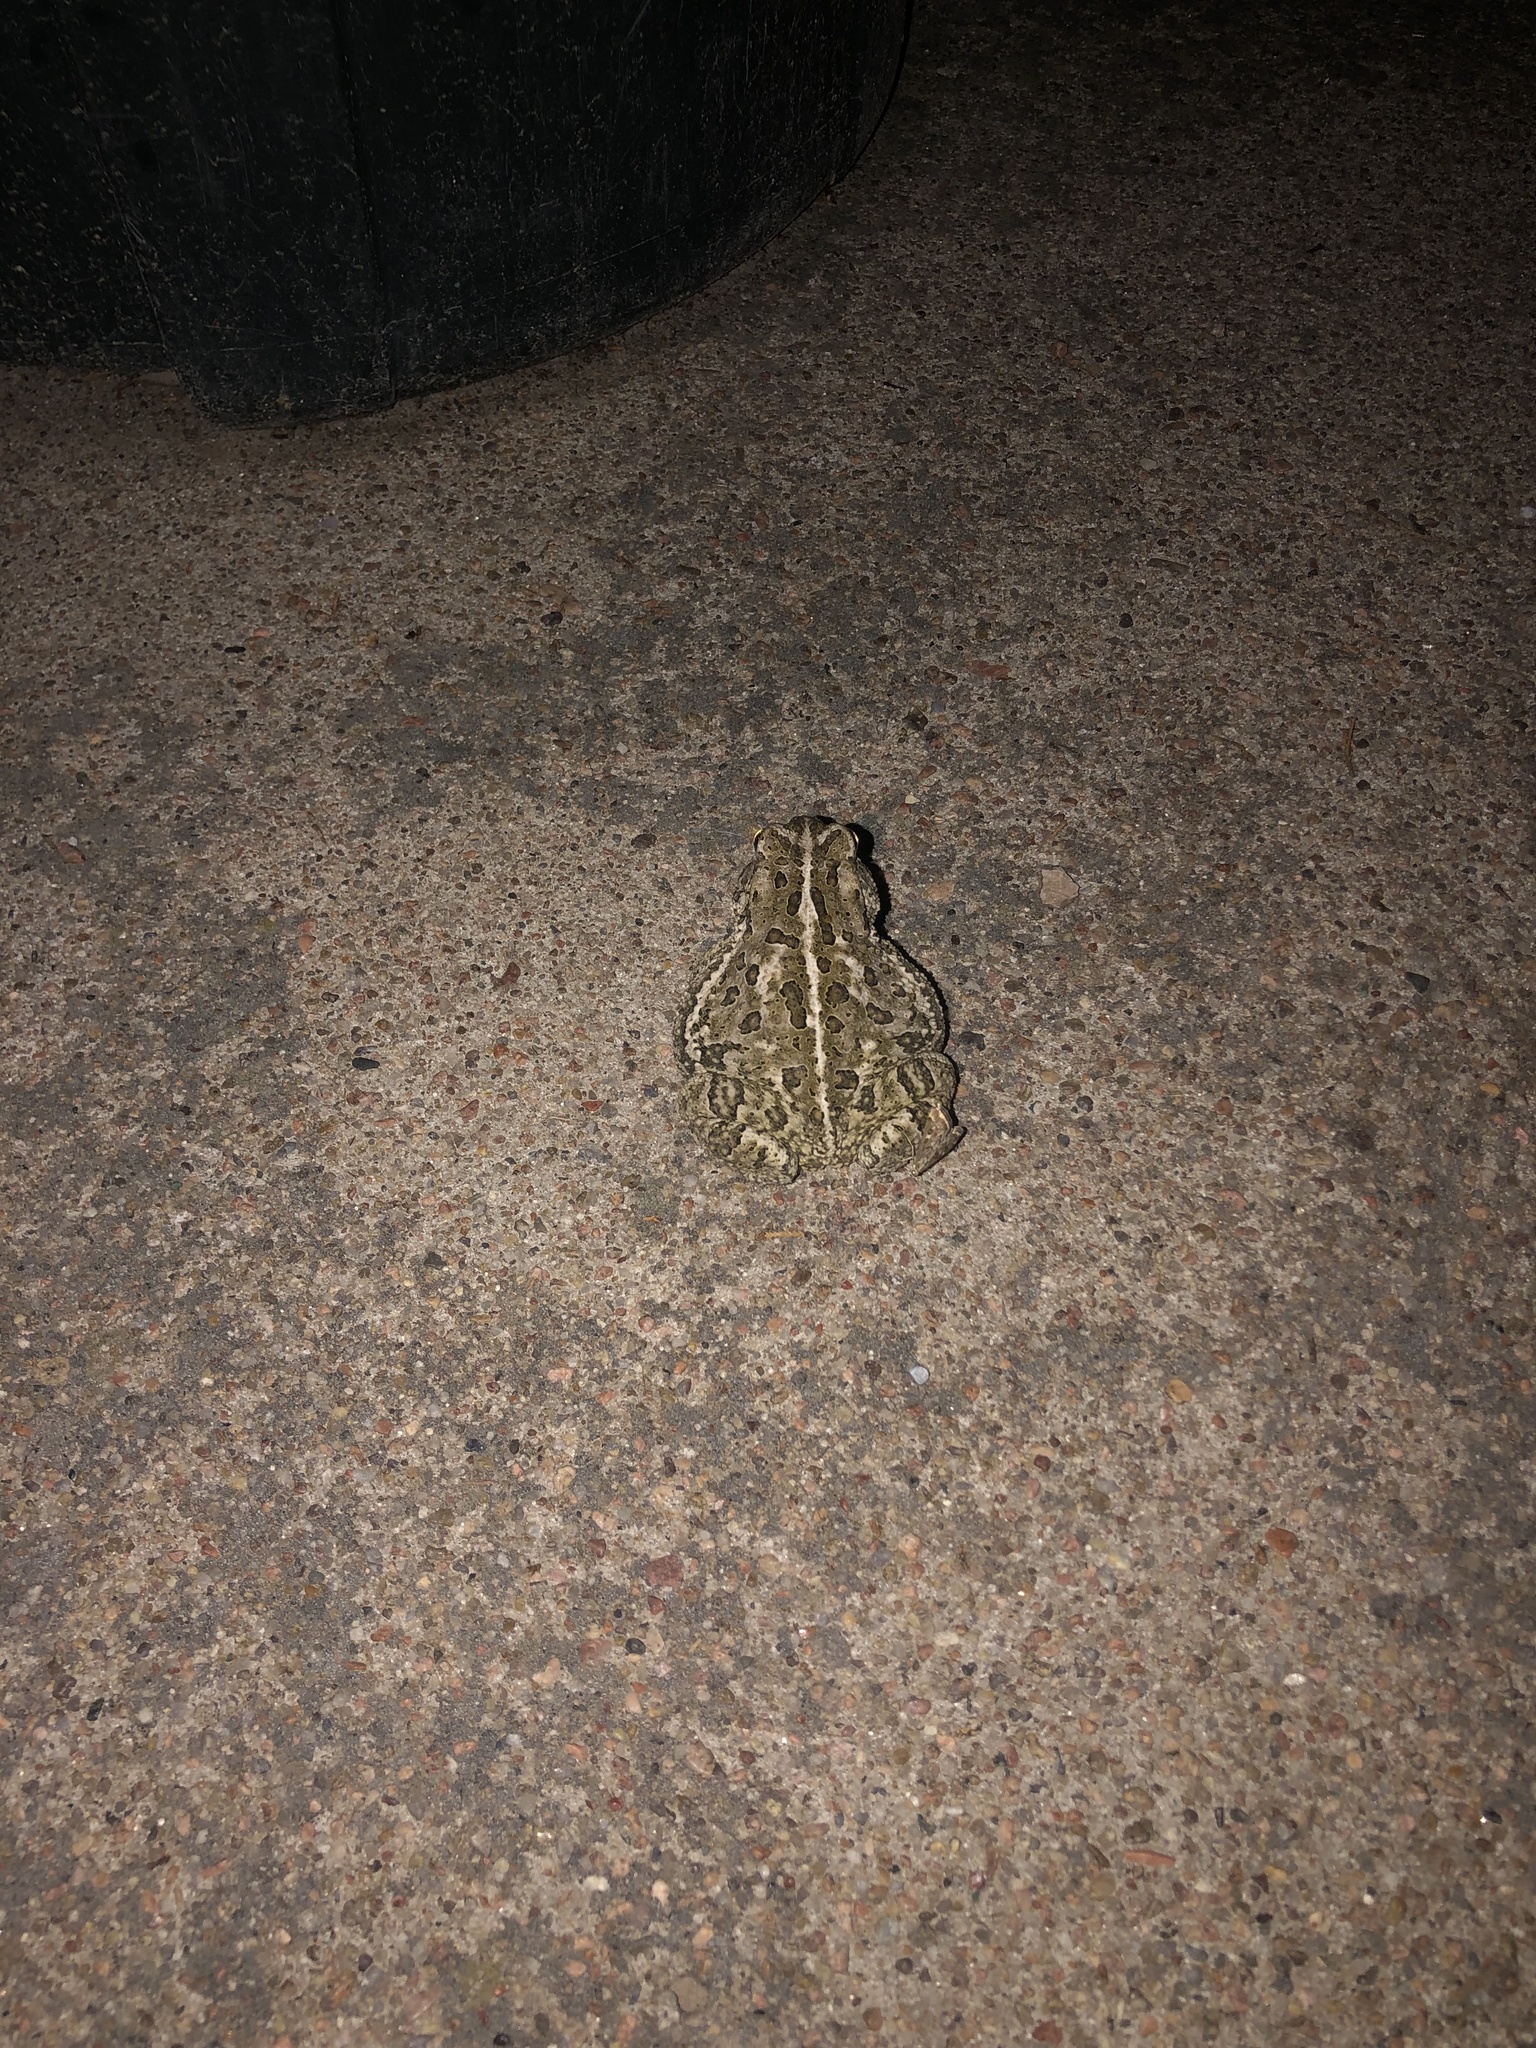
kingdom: Animalia
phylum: Chordata
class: Amphibia
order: Anura
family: Bufonidae
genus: Anaxyrus
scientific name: Anaxyrus woodhousii
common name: Woodhouse's toad
